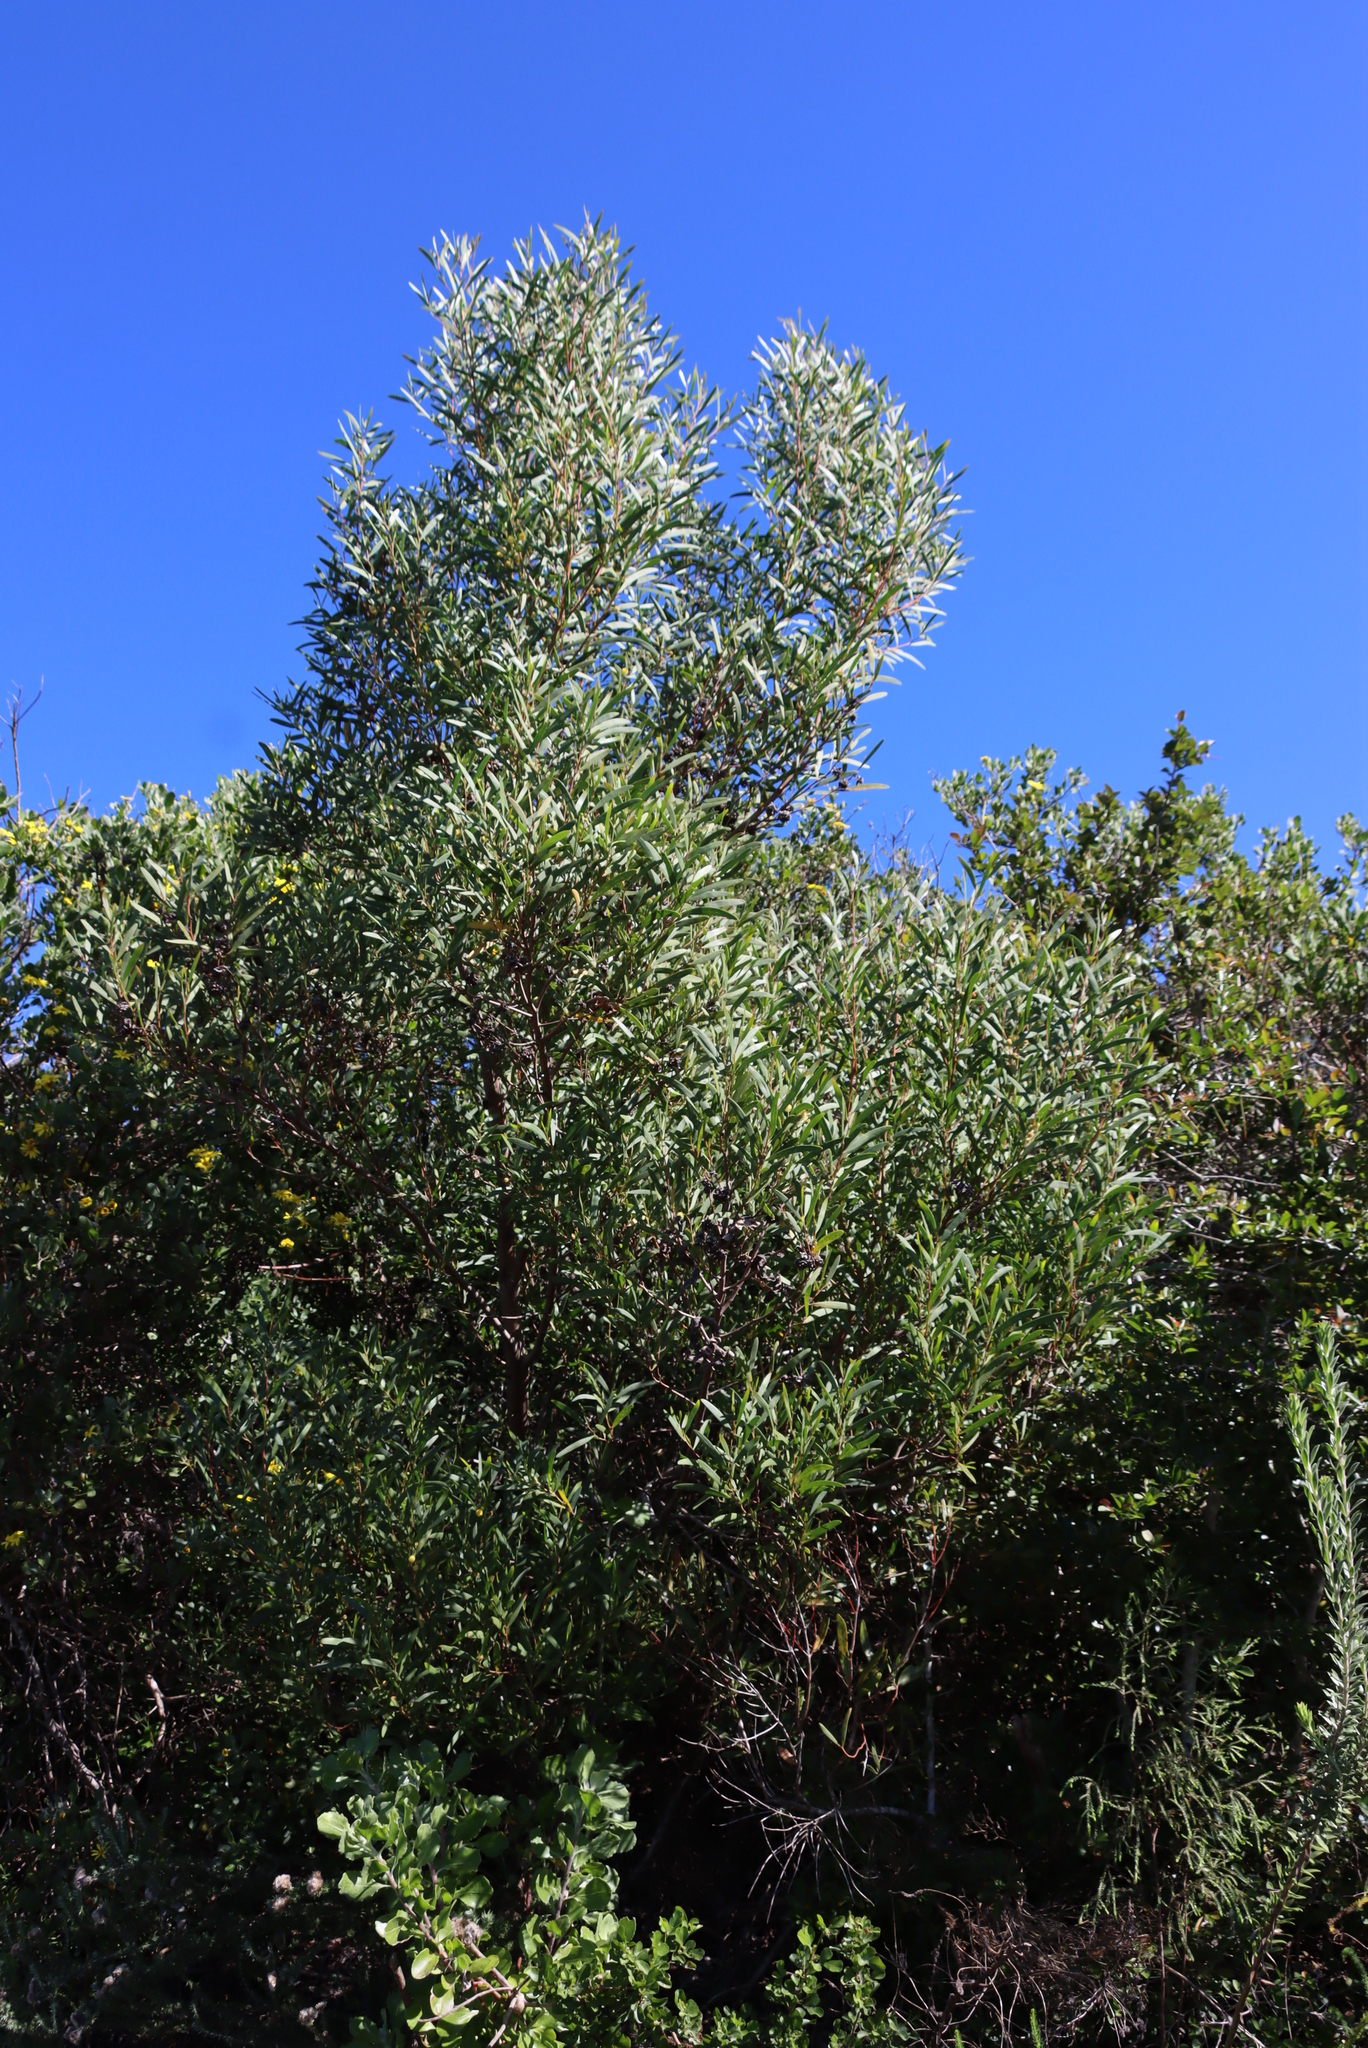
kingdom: Plantae
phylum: Tracheophyta
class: Magnoliopsida
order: Fabales
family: Fabaceae
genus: Acacia
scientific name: Acacia melanoxylon
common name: Blackwood
